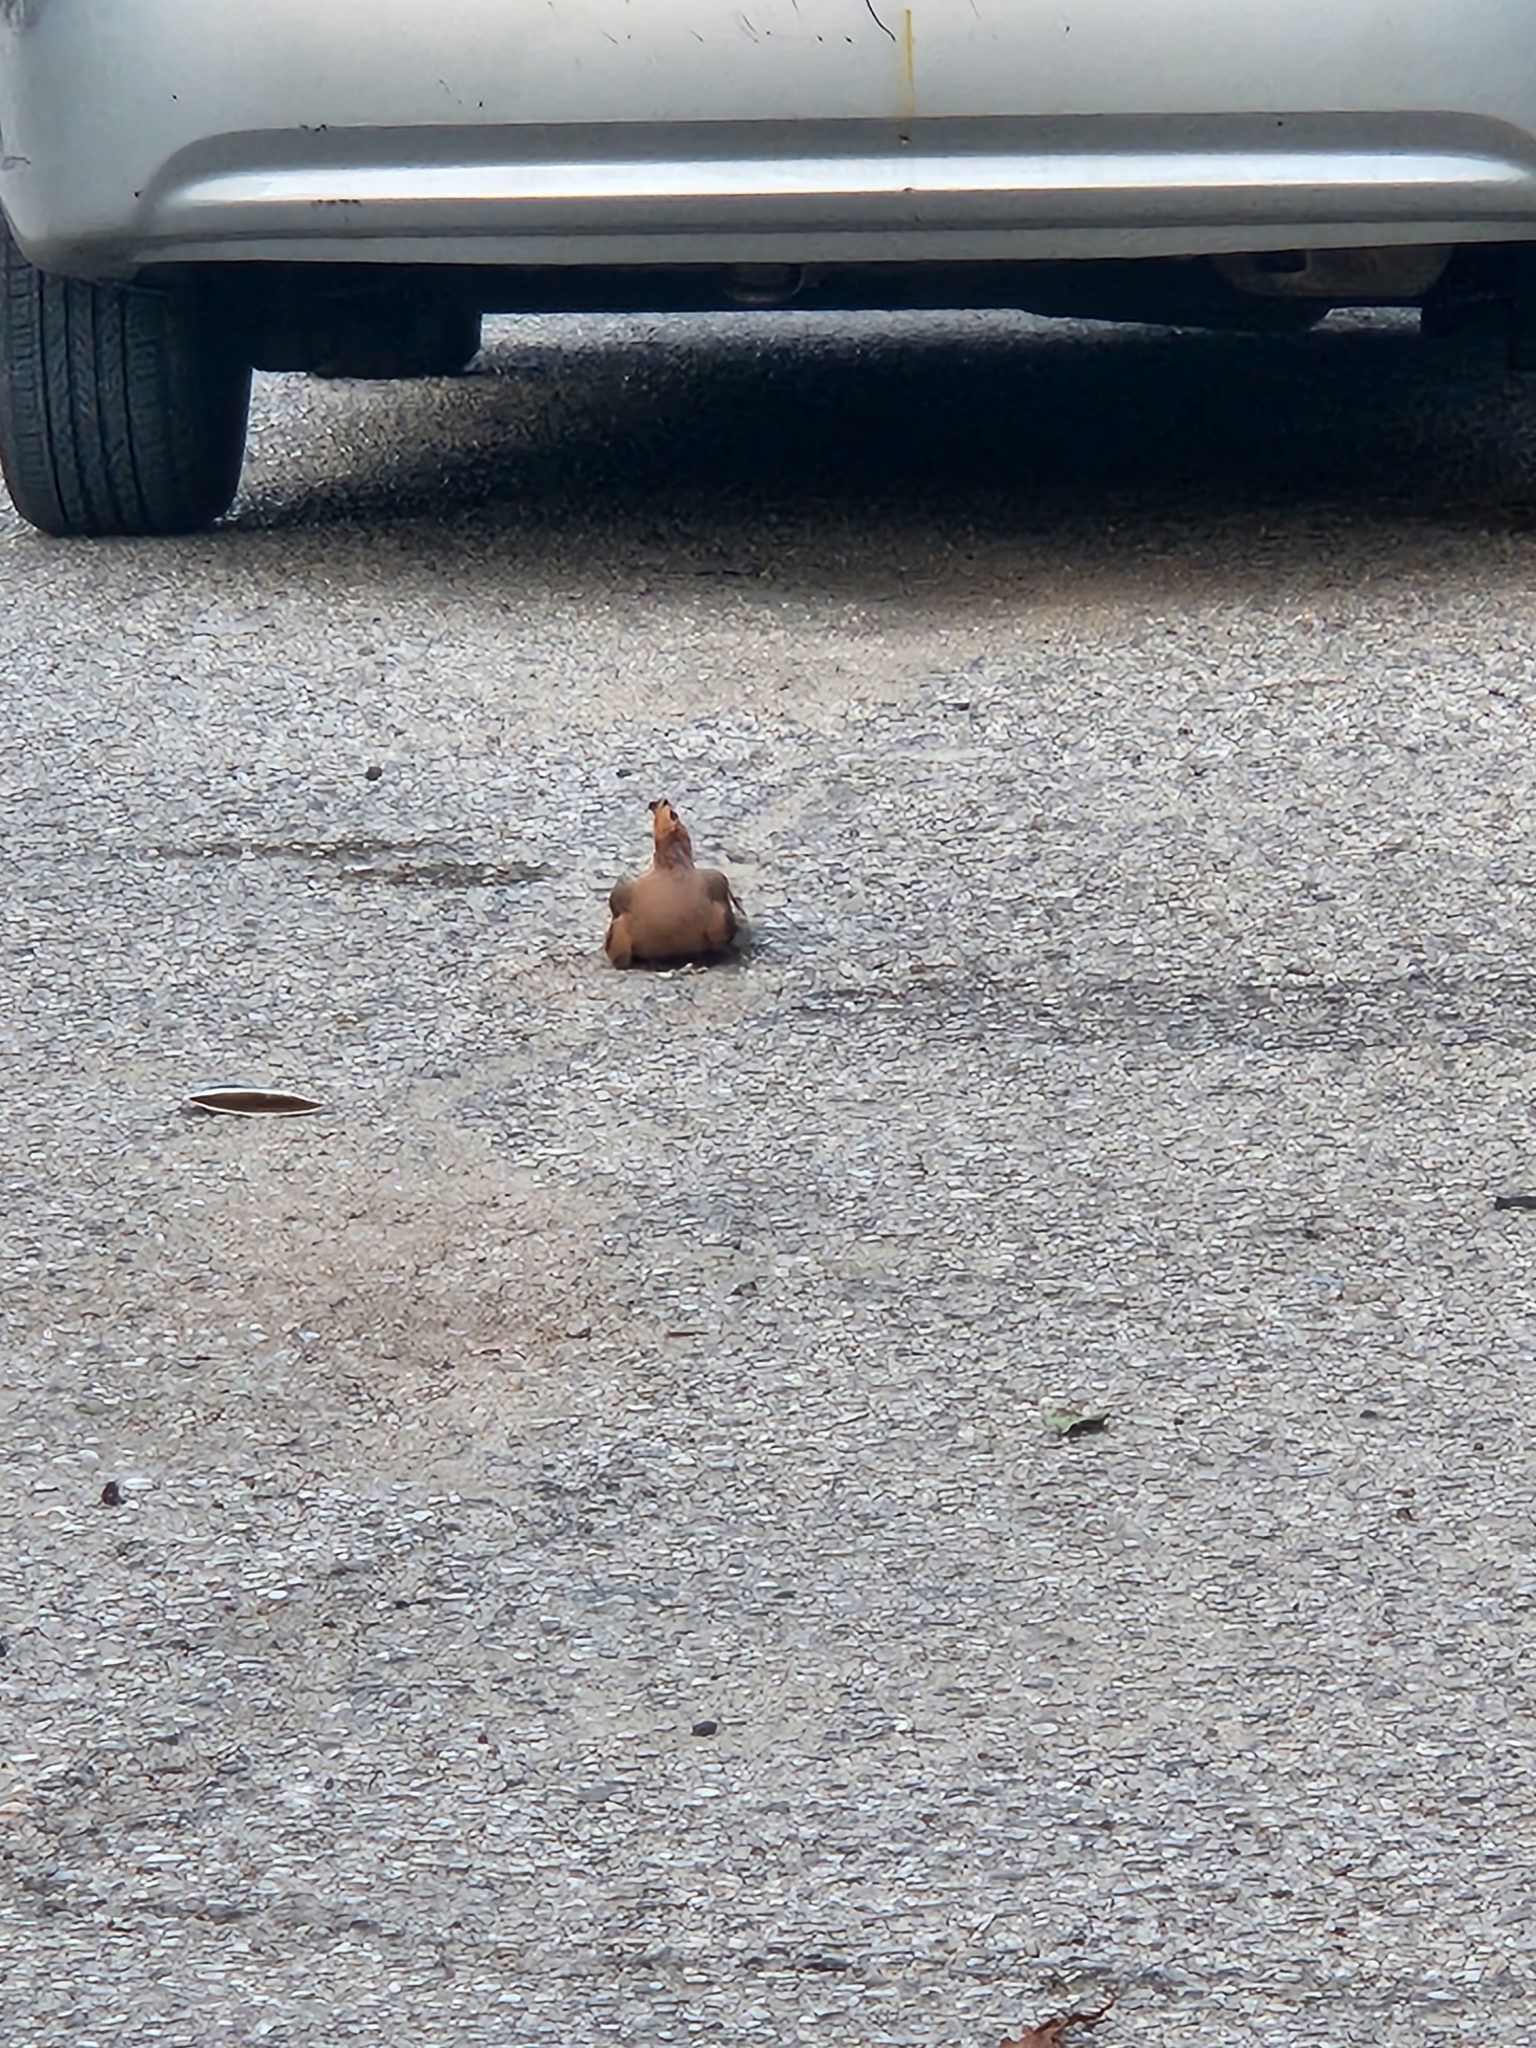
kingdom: Animalia
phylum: Chordata
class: Aves
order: Bucerotiformes
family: Upupidae
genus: Upupa
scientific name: Upupa epops
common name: Eurasian hoopoe
